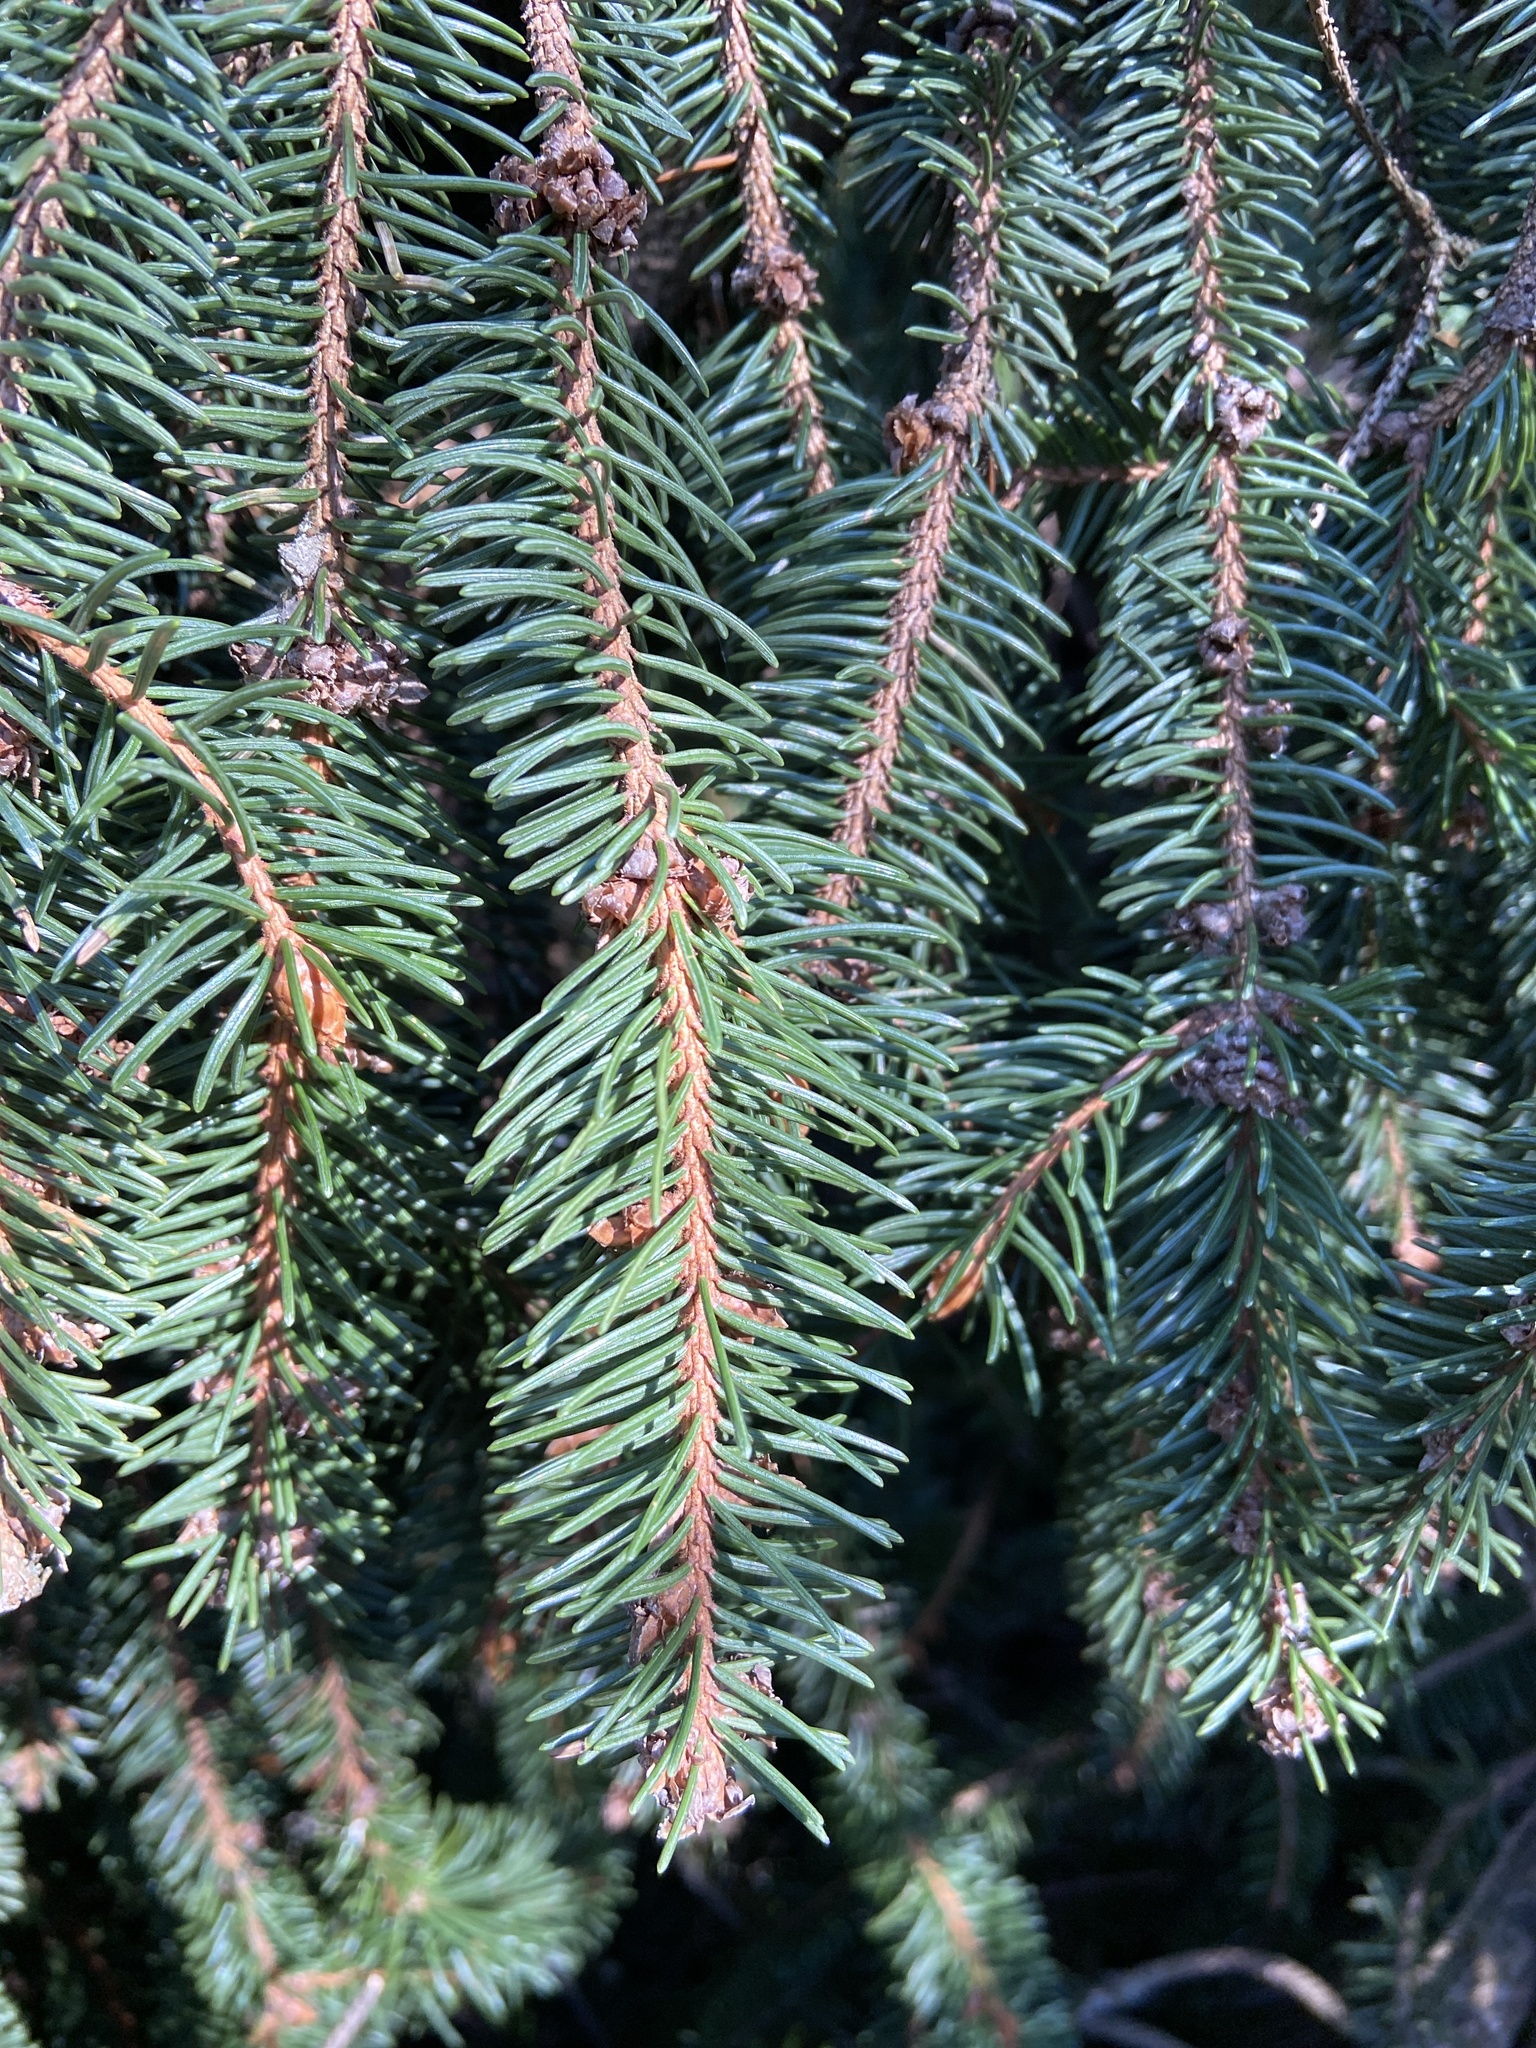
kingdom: Plantae
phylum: Tracheophyta
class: Pinopsida
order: Pinales
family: Pinaceae
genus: Picea
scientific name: Picea abies
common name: Norway spruce
